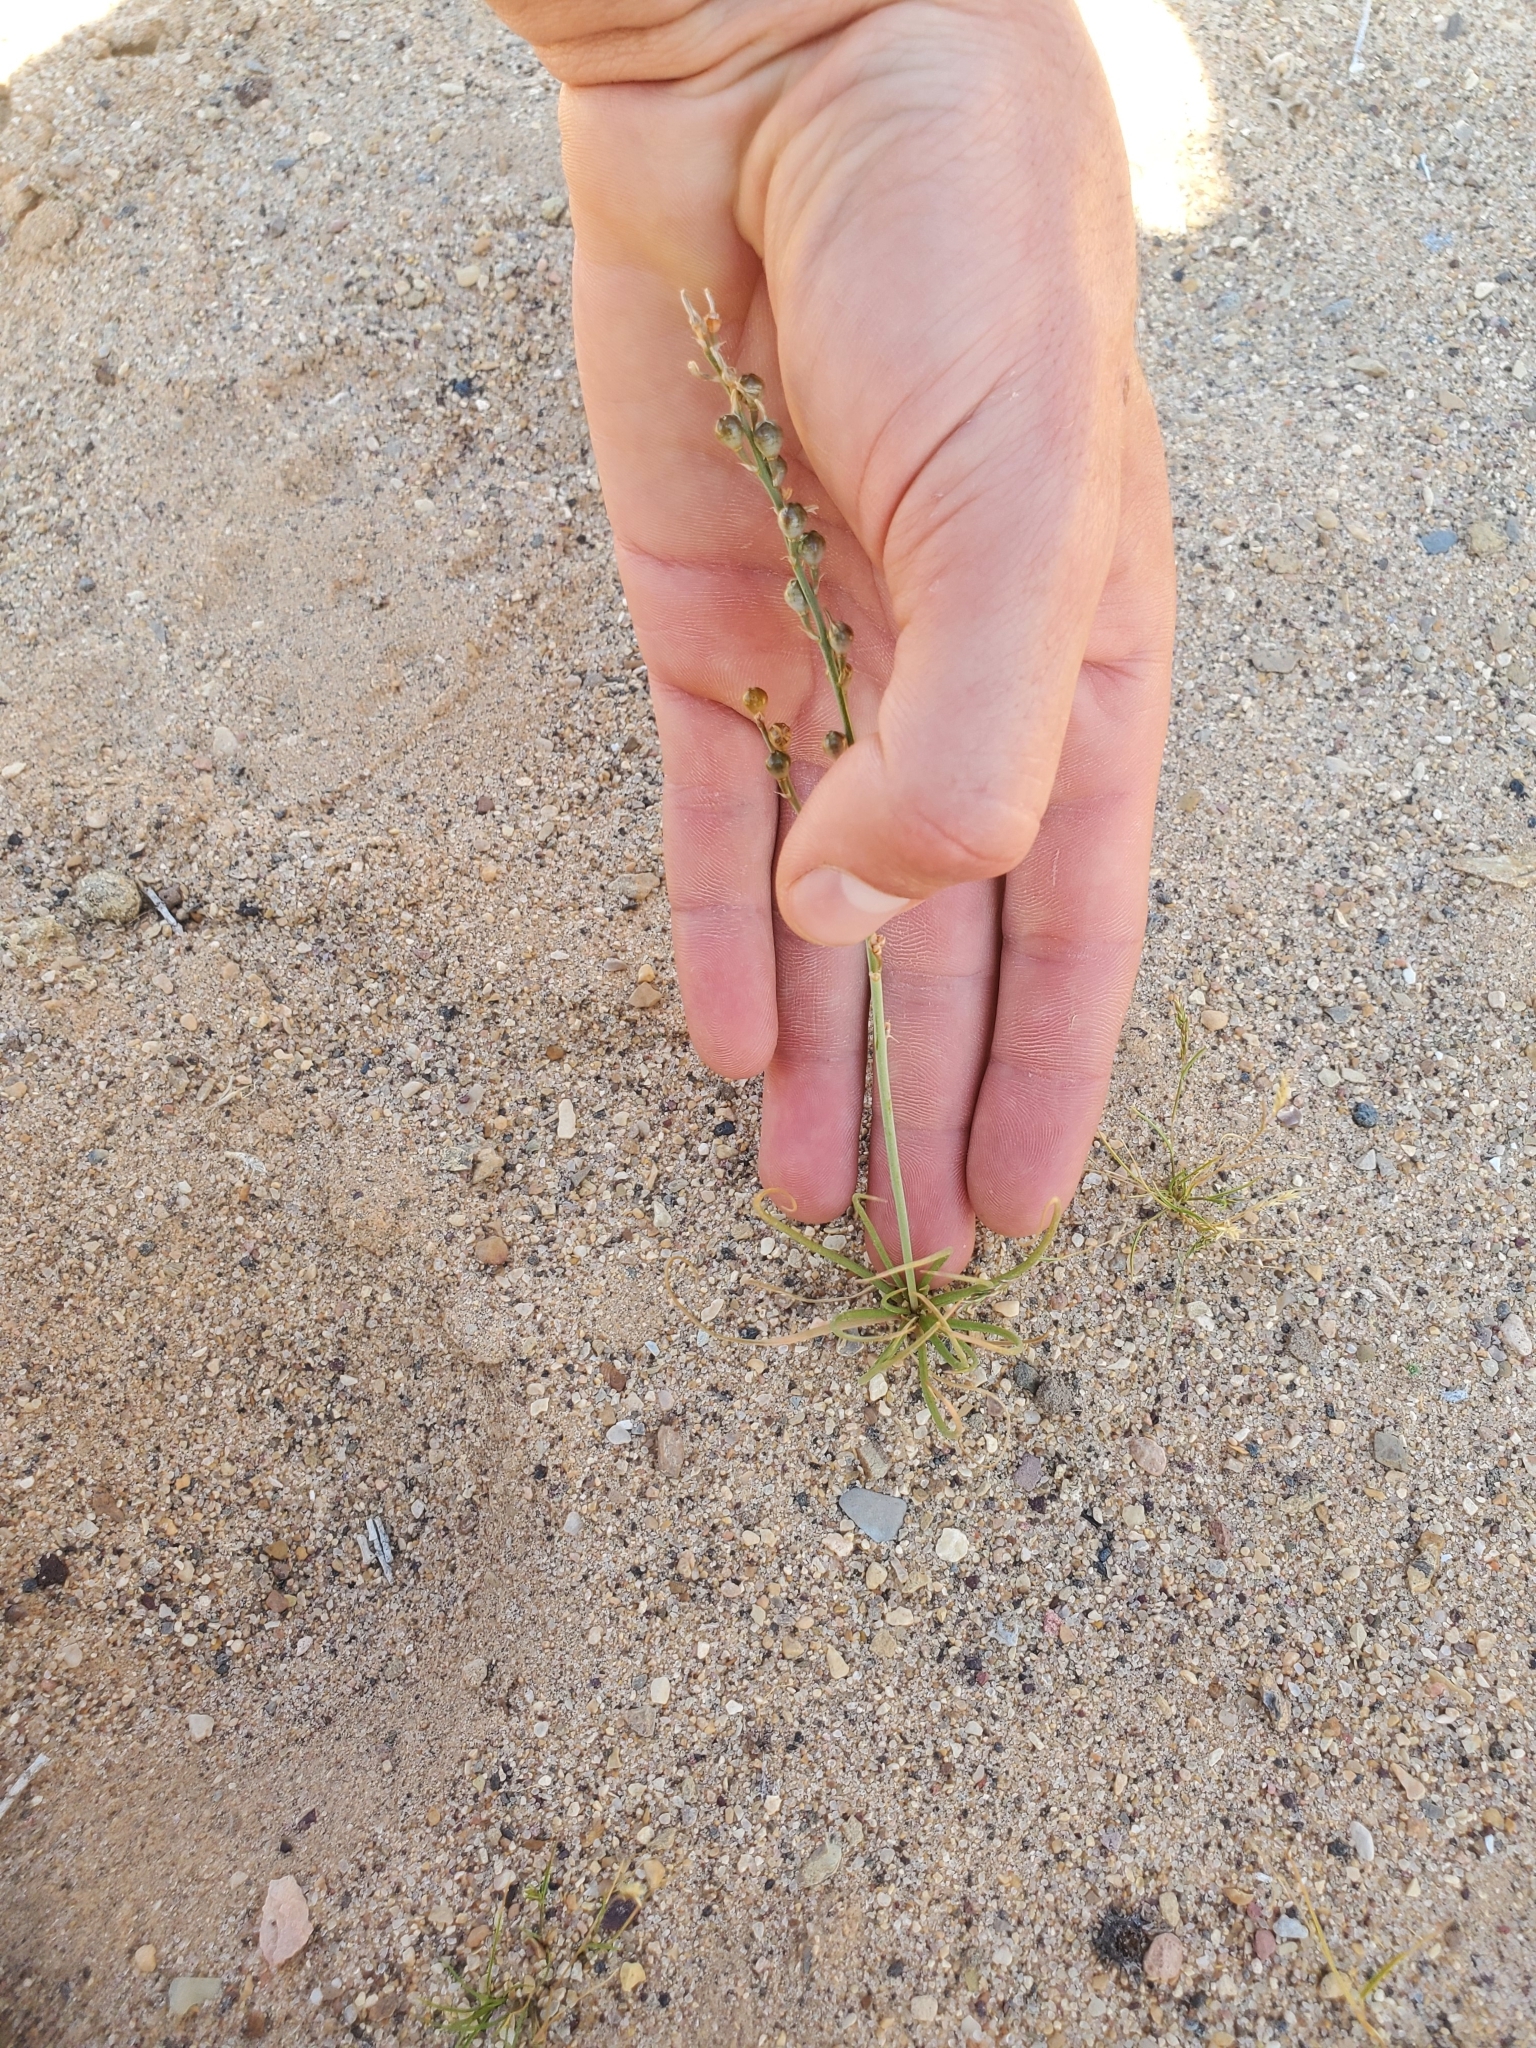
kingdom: Plantae
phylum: Tracheophyta
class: Liliopsida
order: Asparagales
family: Asphodelaceae
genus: Asphodelus
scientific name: Asphodelus tenuifolius
